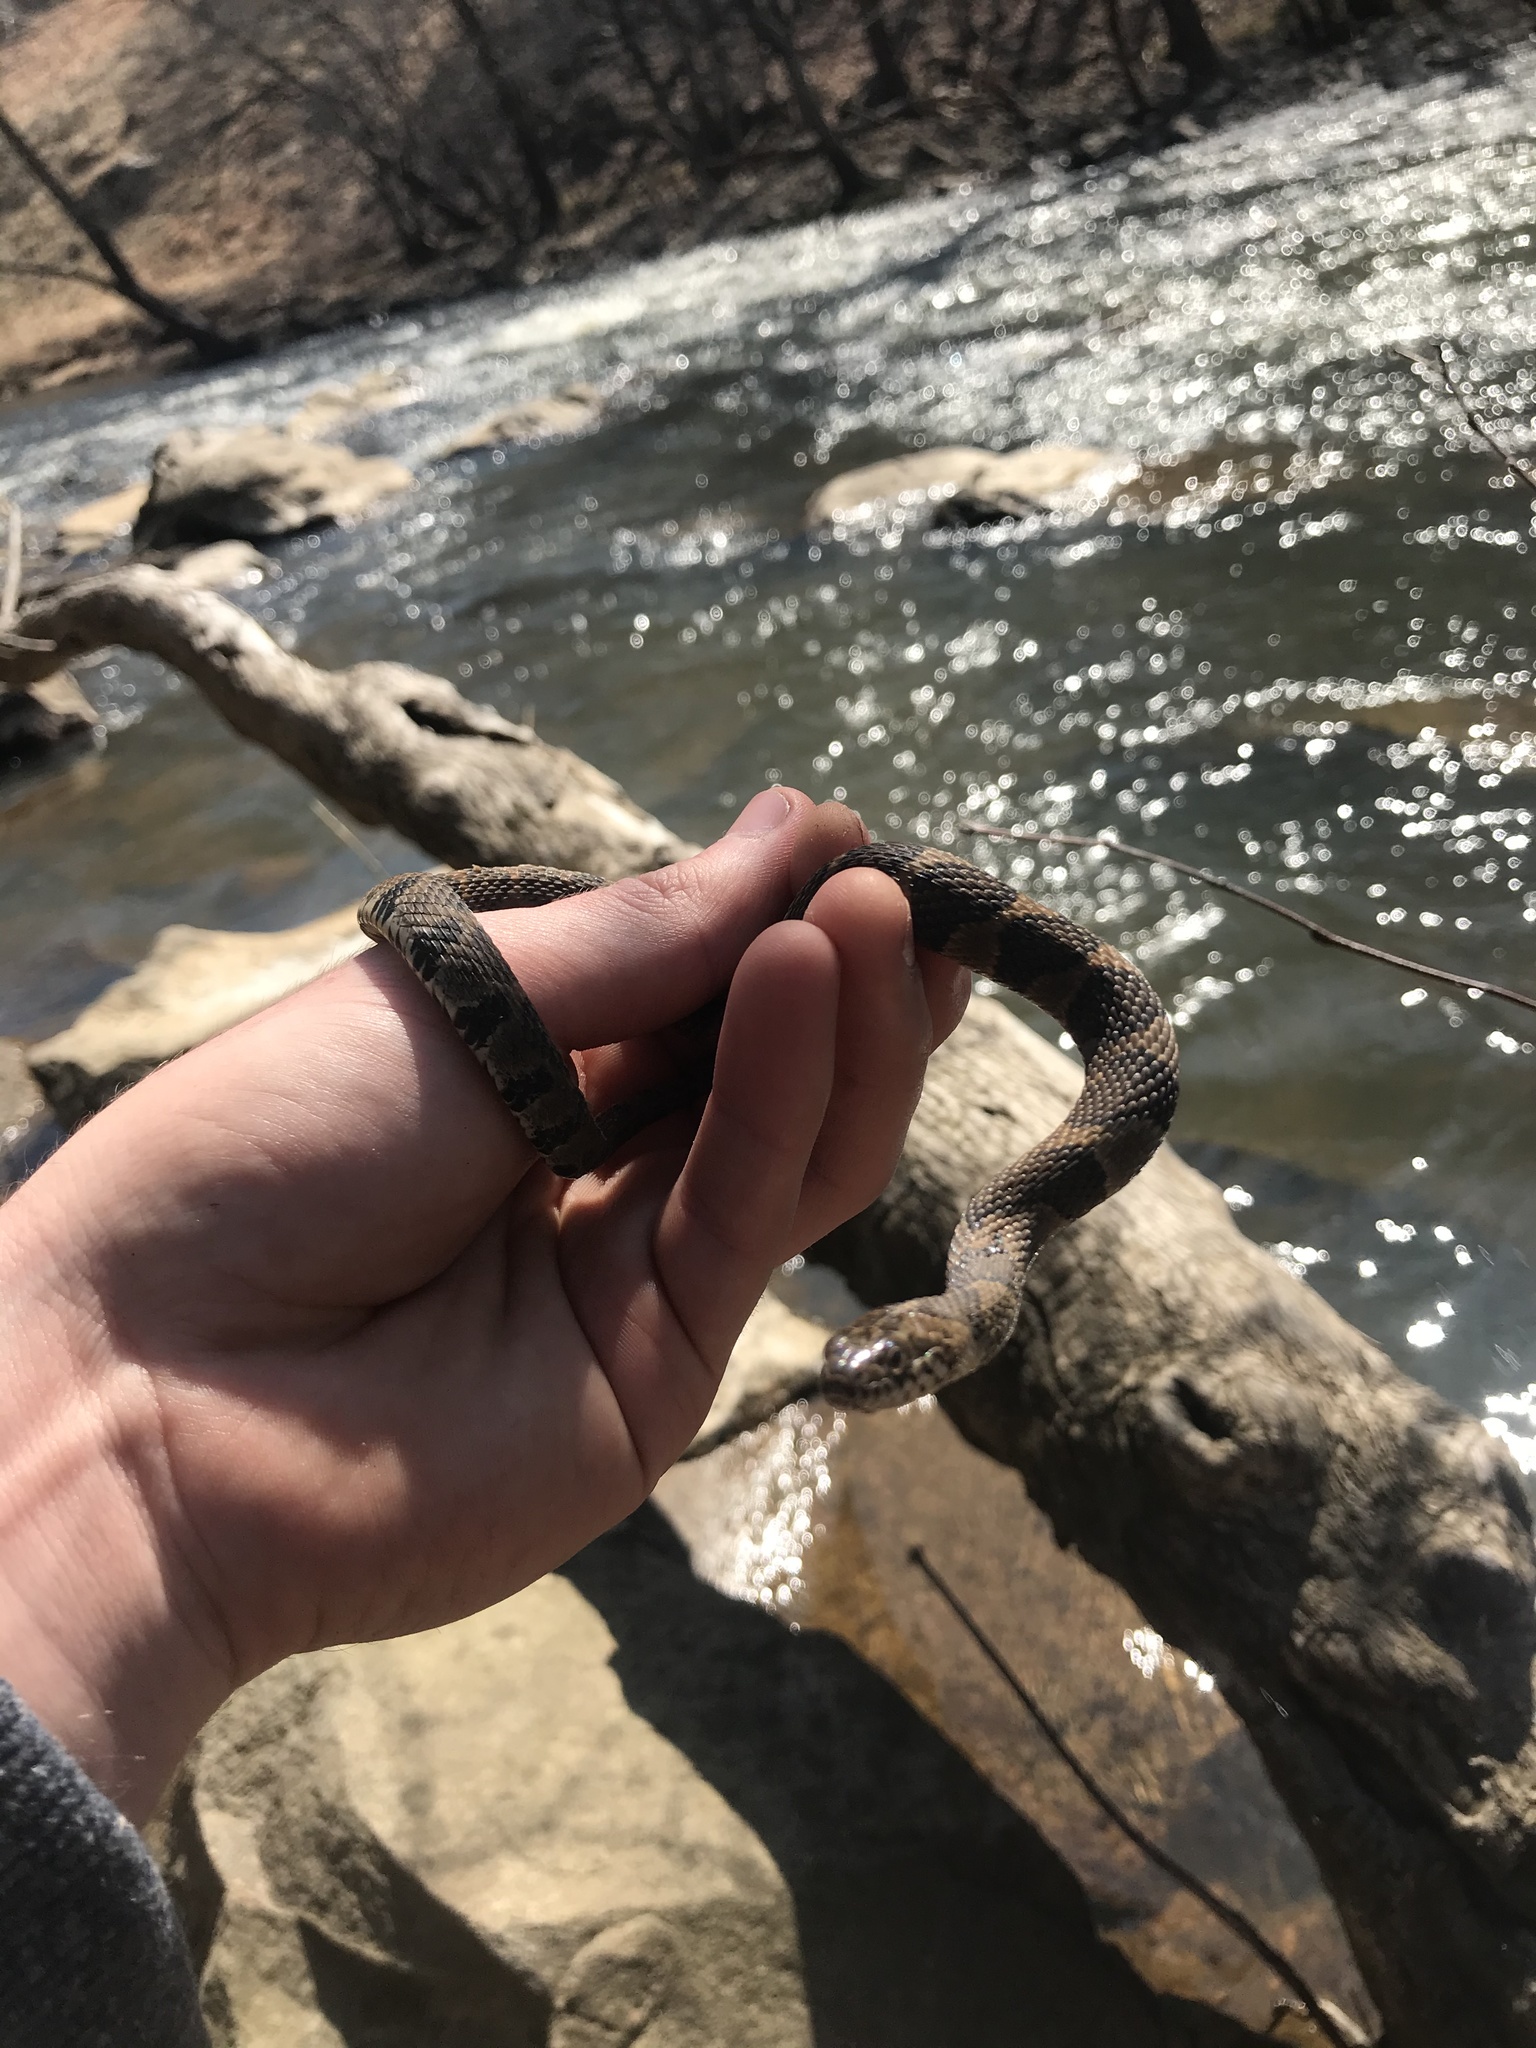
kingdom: Animalia
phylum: Chordata
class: Squamata
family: Colubridae
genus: Nerodia
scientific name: Nerodia sipedon
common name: Northern water snake
